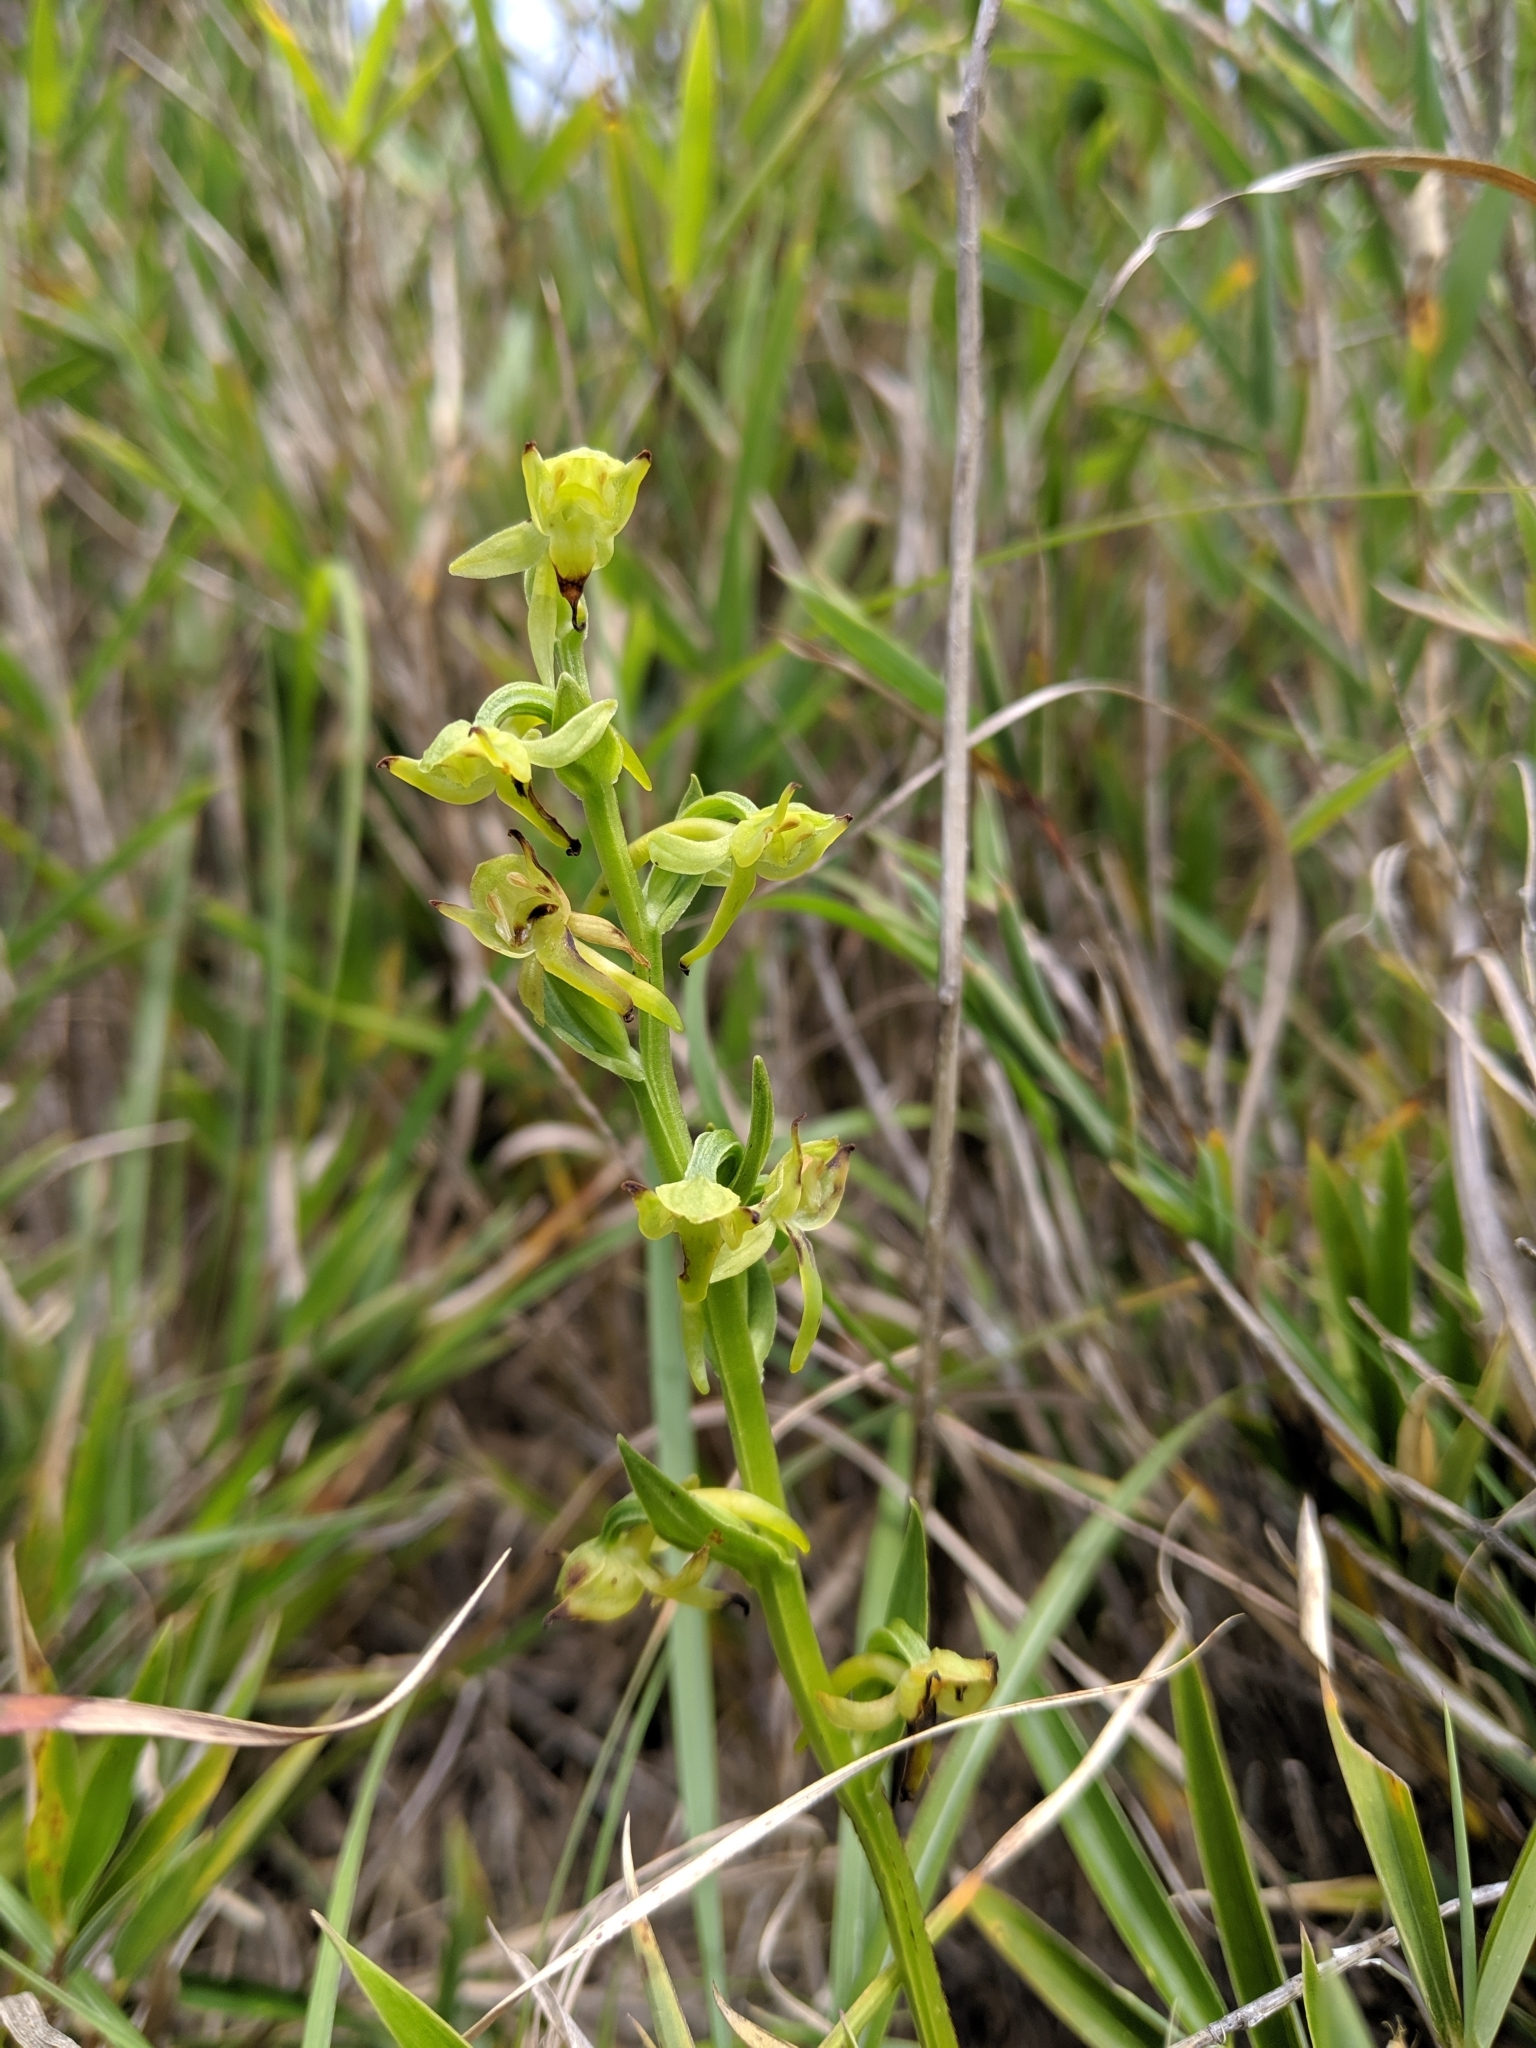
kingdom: Plantae
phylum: Tracheophyta
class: Liliopsida
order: Asparagales
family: Orchidaceae
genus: Platanthera
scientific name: Platanthera pachyglossa
